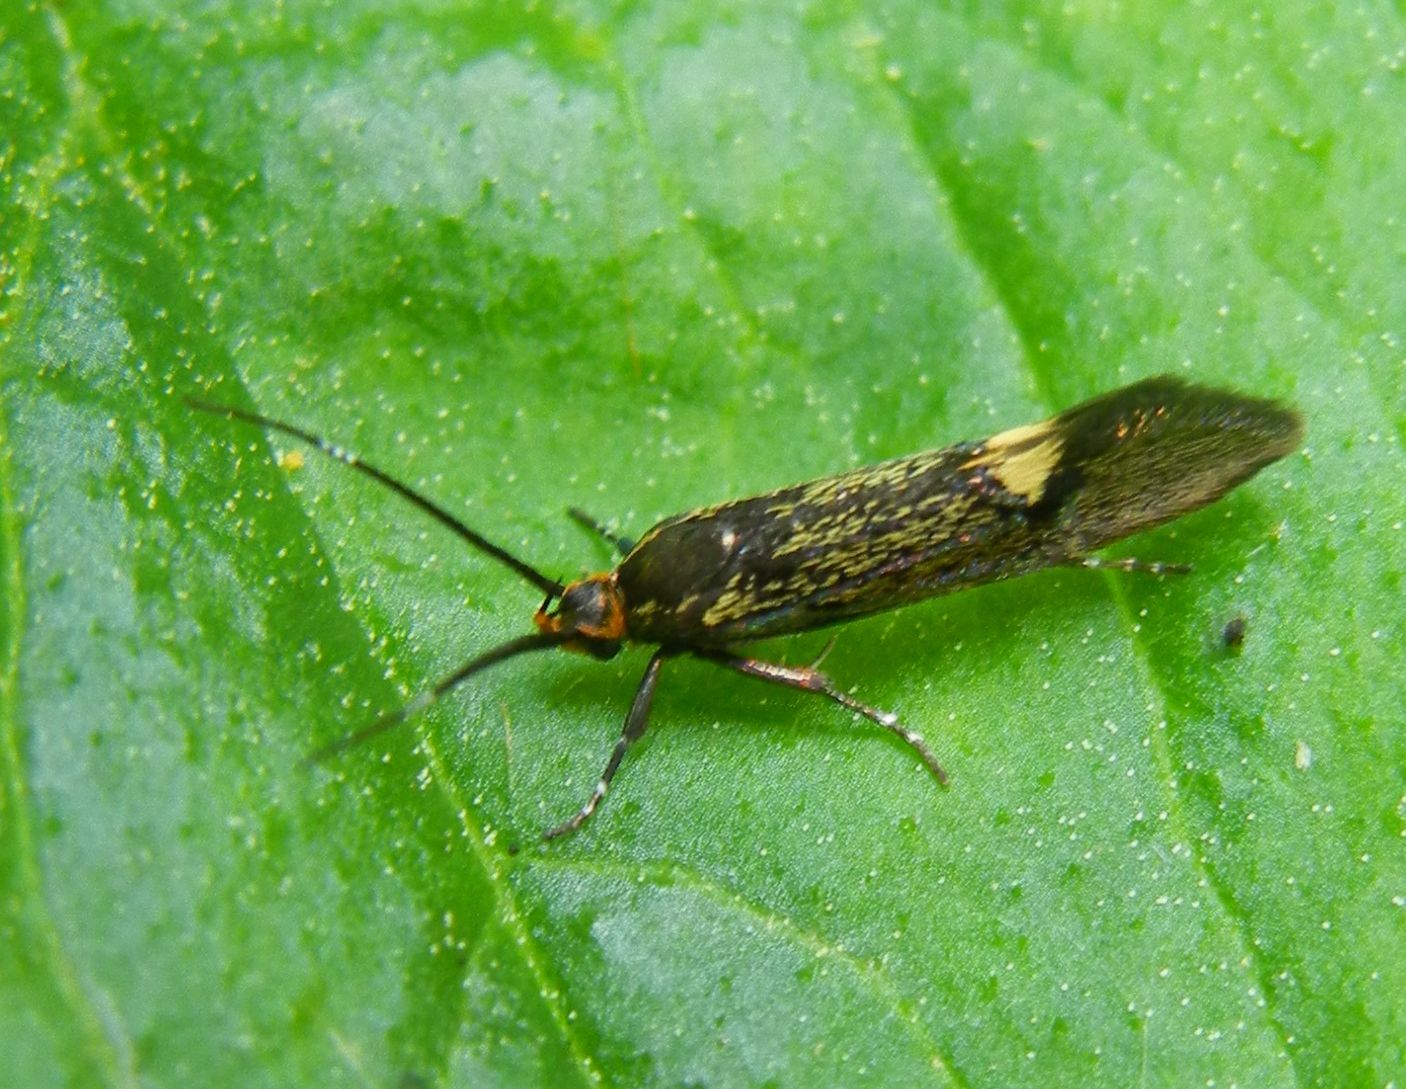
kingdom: Animalia
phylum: Arthropoda
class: Insecta
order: Lepidoptera
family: Oecophoridae
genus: Dafa
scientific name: Dafa Esperia sulphurella
